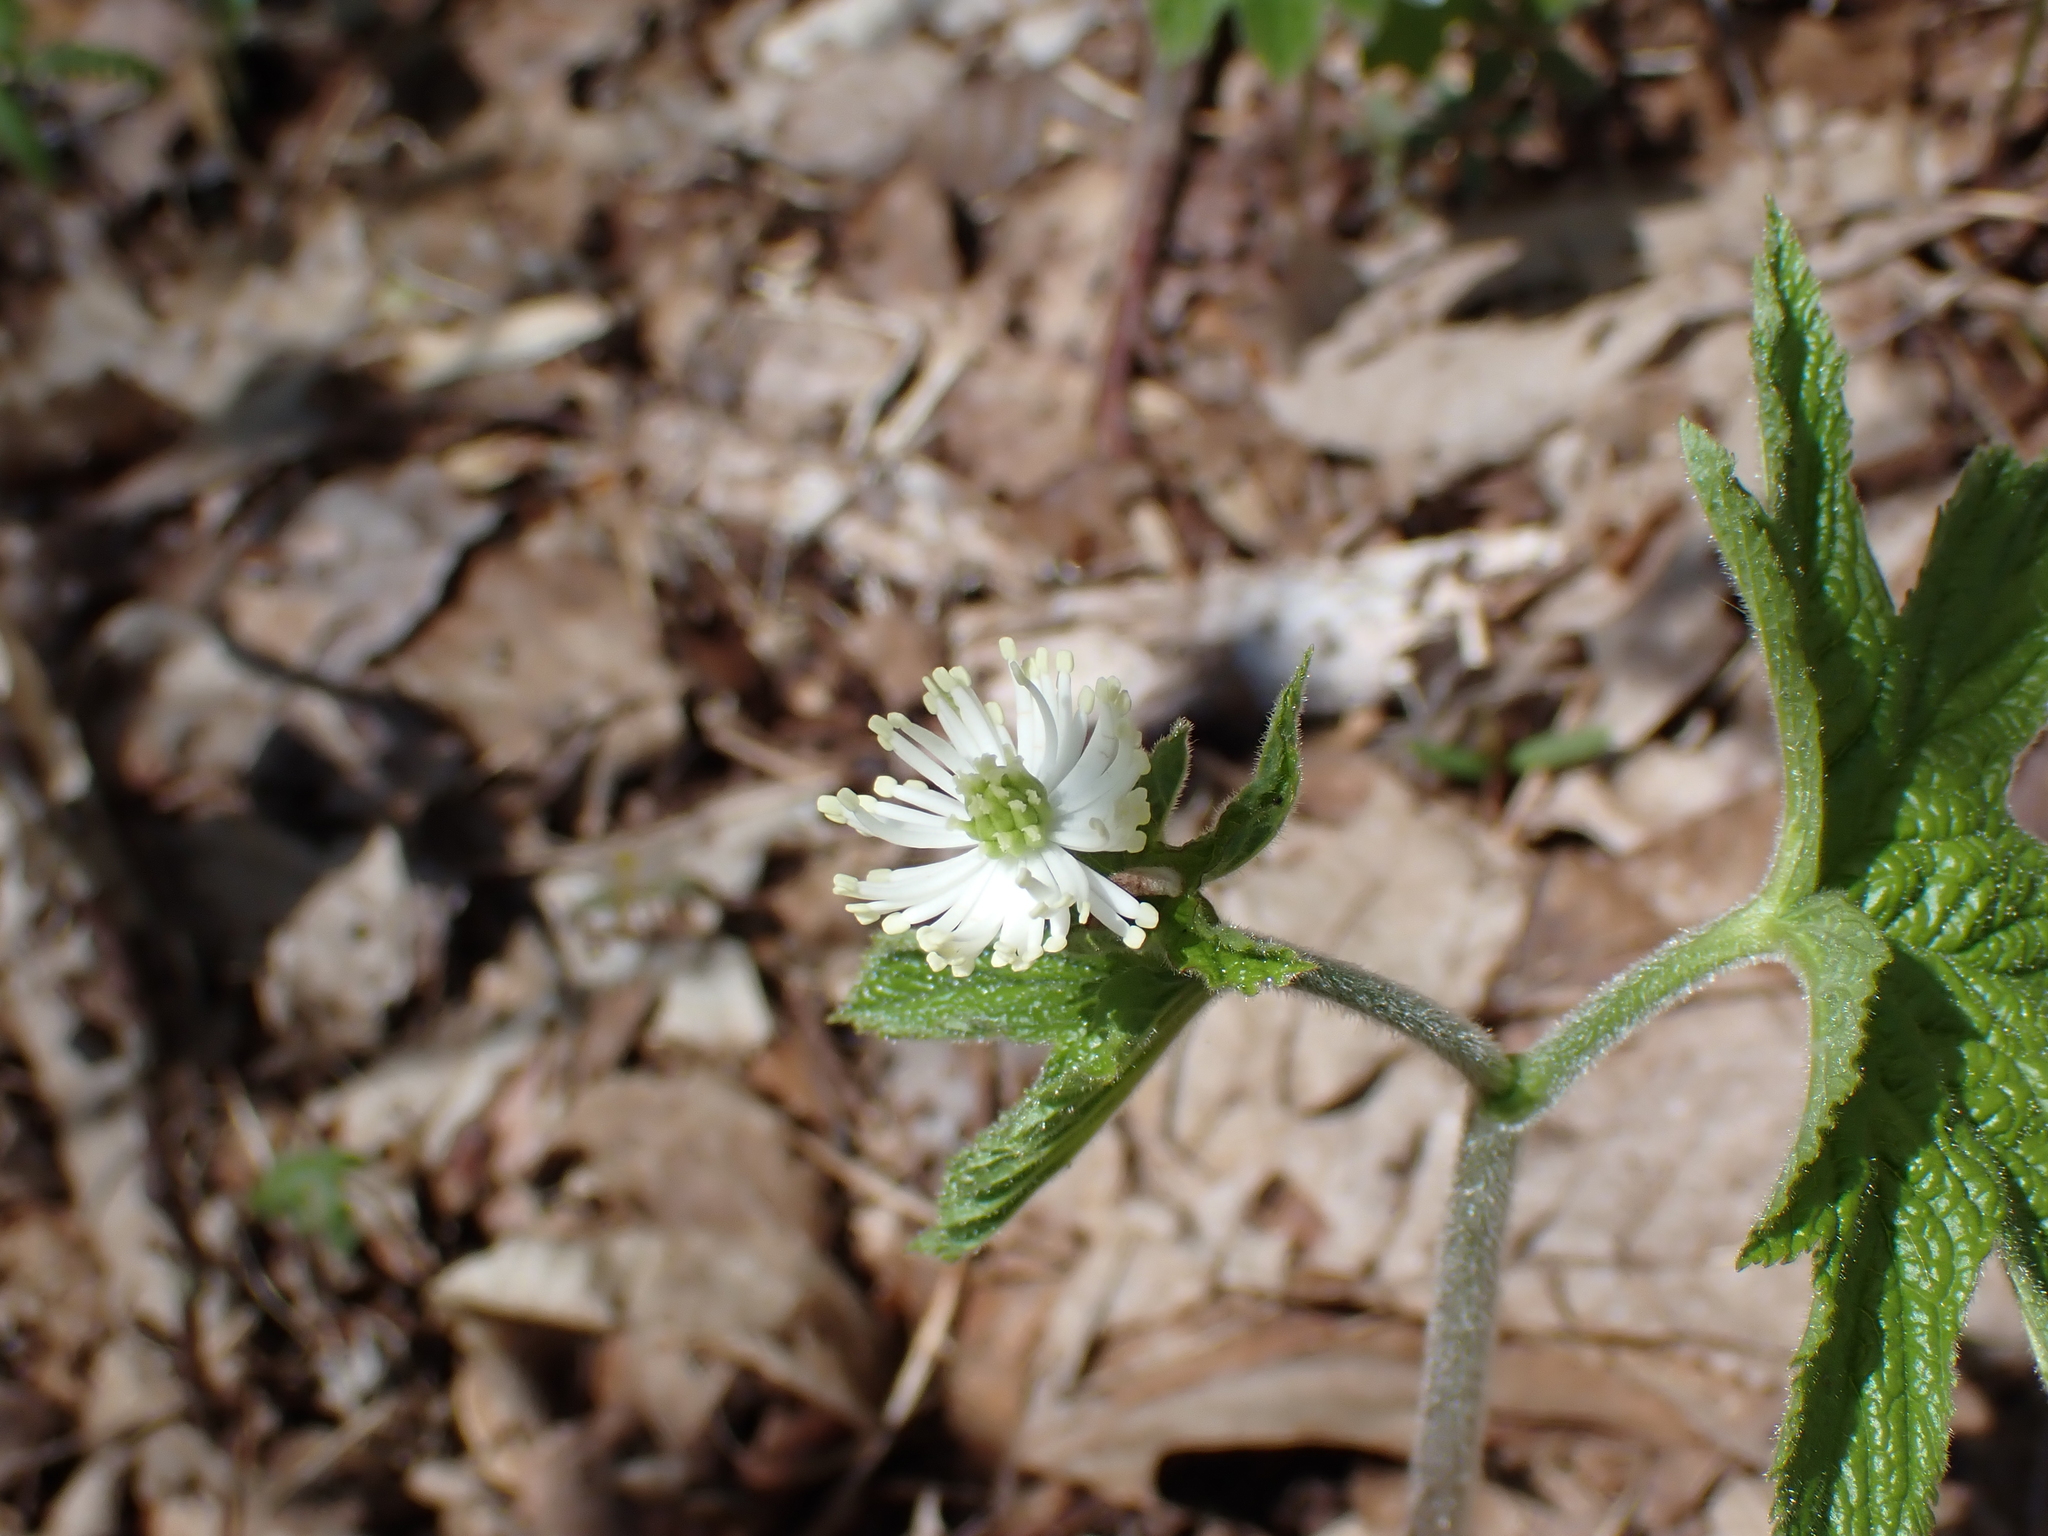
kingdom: Plantae
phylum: Tracheophyta
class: Magnoliopsida
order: Ranunculales
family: Ranunculaceae
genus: Hydrastis
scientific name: Hydrastis canadensis
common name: Goldenseal
